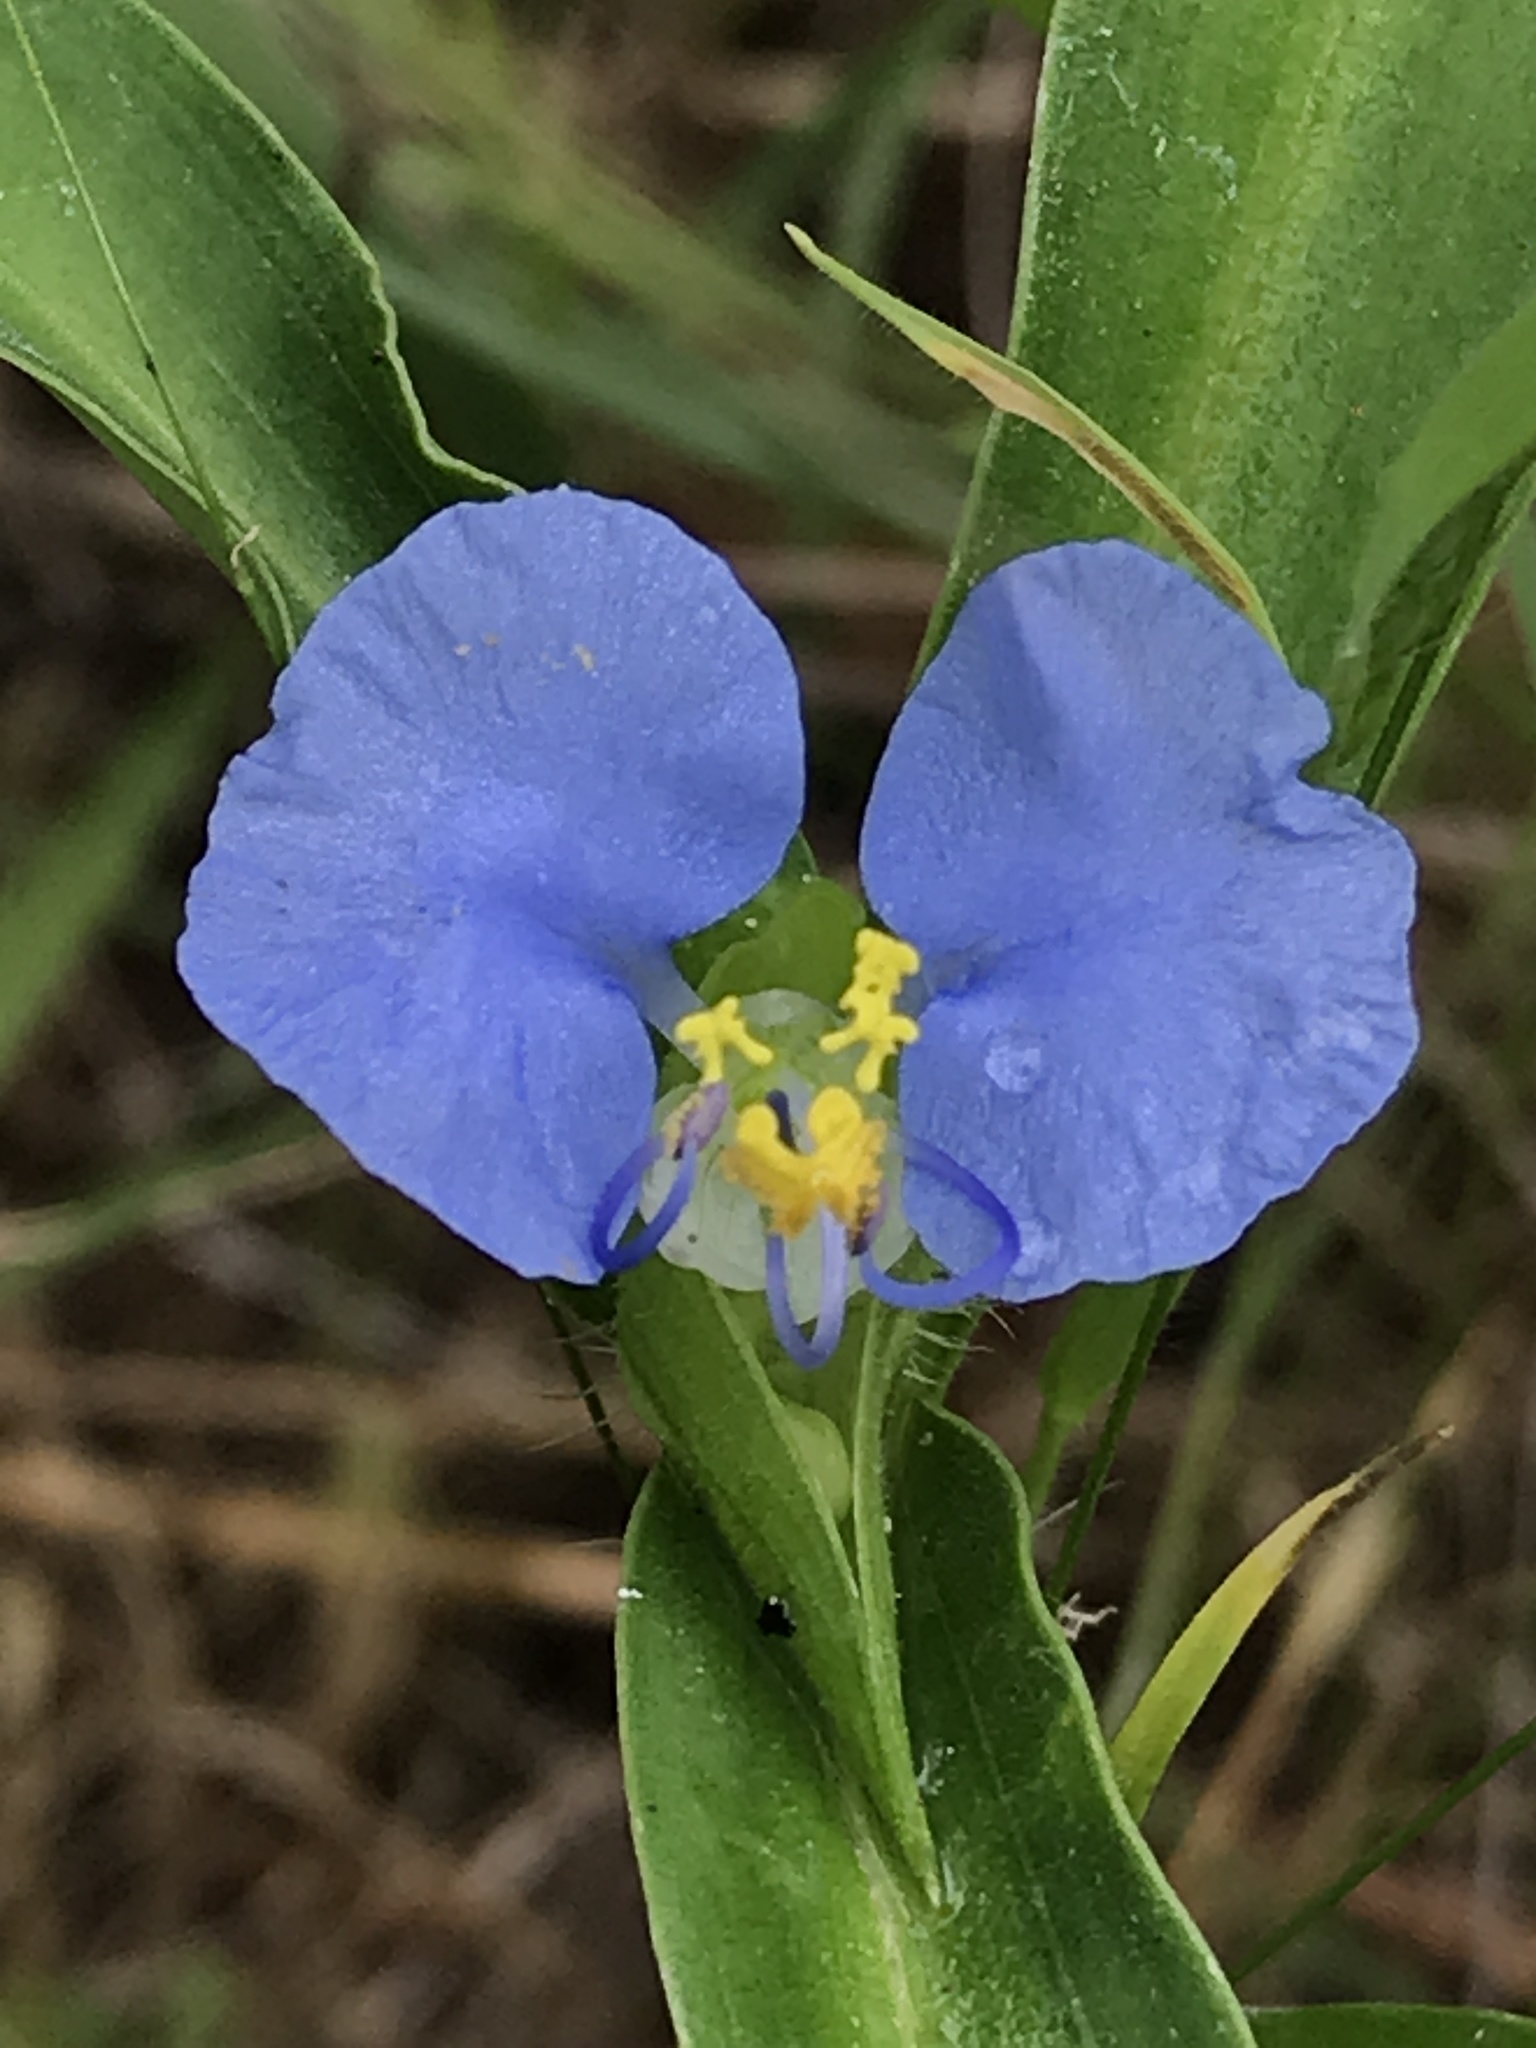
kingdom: Plantae
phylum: Tracheophyta
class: Liliopsida
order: Commelinales
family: Commelinaceae
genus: Commelina
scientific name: Commelina erecta
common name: Blousel blommetjie
